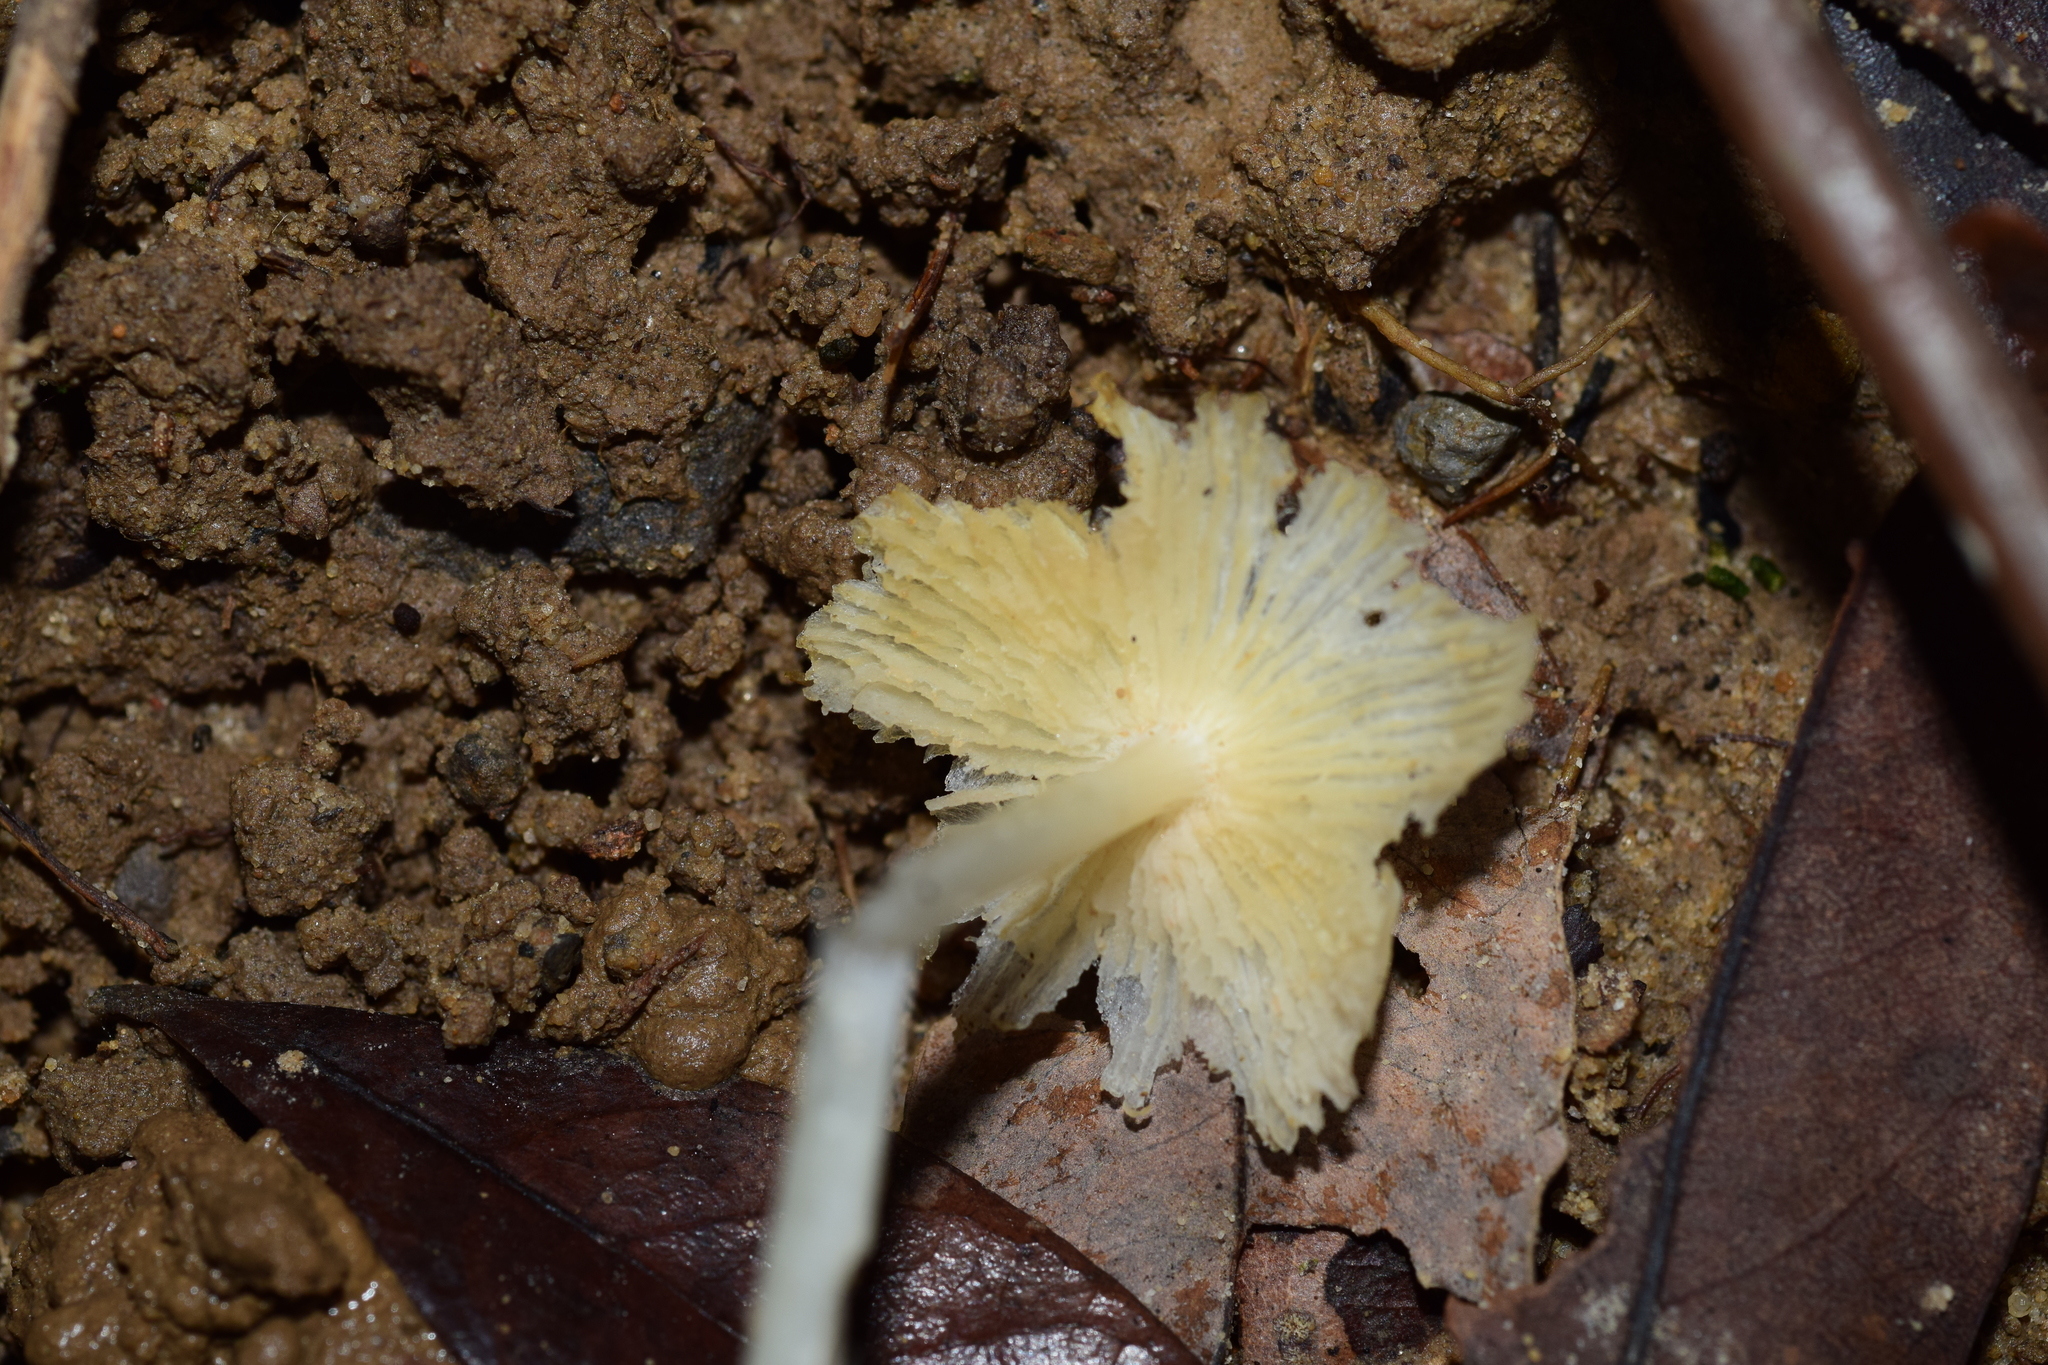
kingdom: Fungi
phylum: Basidiomycota
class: Agaricomycetes
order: Agaricales
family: Lyophyllaceae
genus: Termitomyces
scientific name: Termitomyces microcarpus
